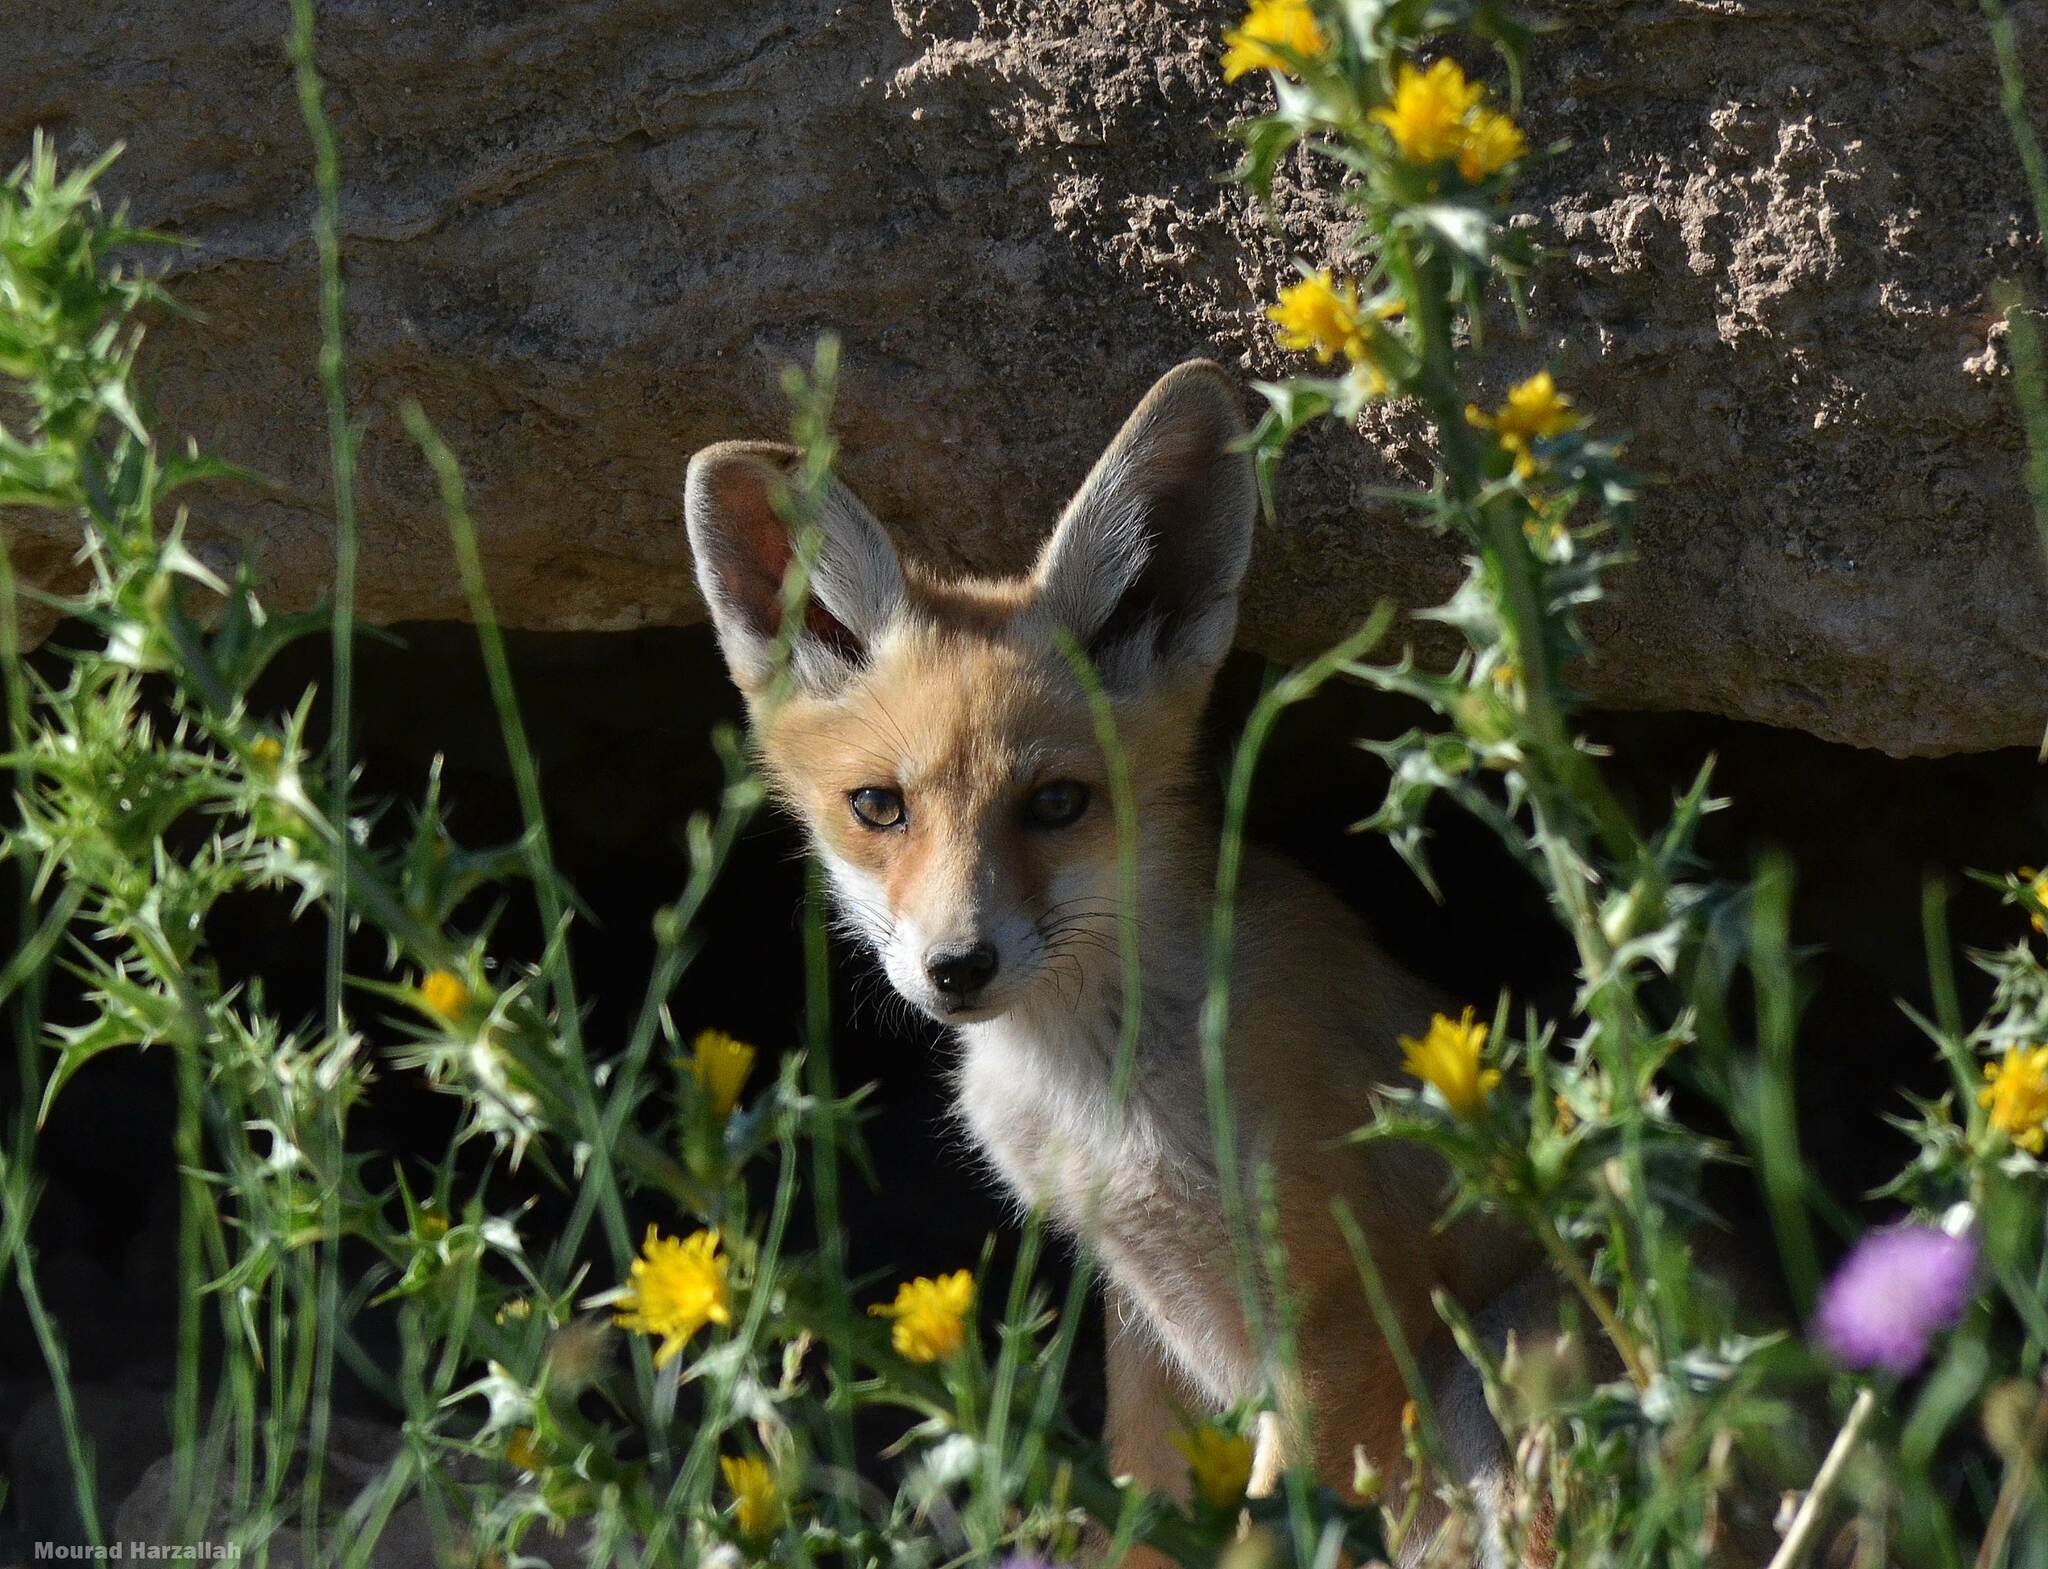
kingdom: Animalia
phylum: Chordata
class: Mammalia
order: Carnivora
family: Canidae
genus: Vulpes
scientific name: Vulpes vulpes
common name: Red fox
